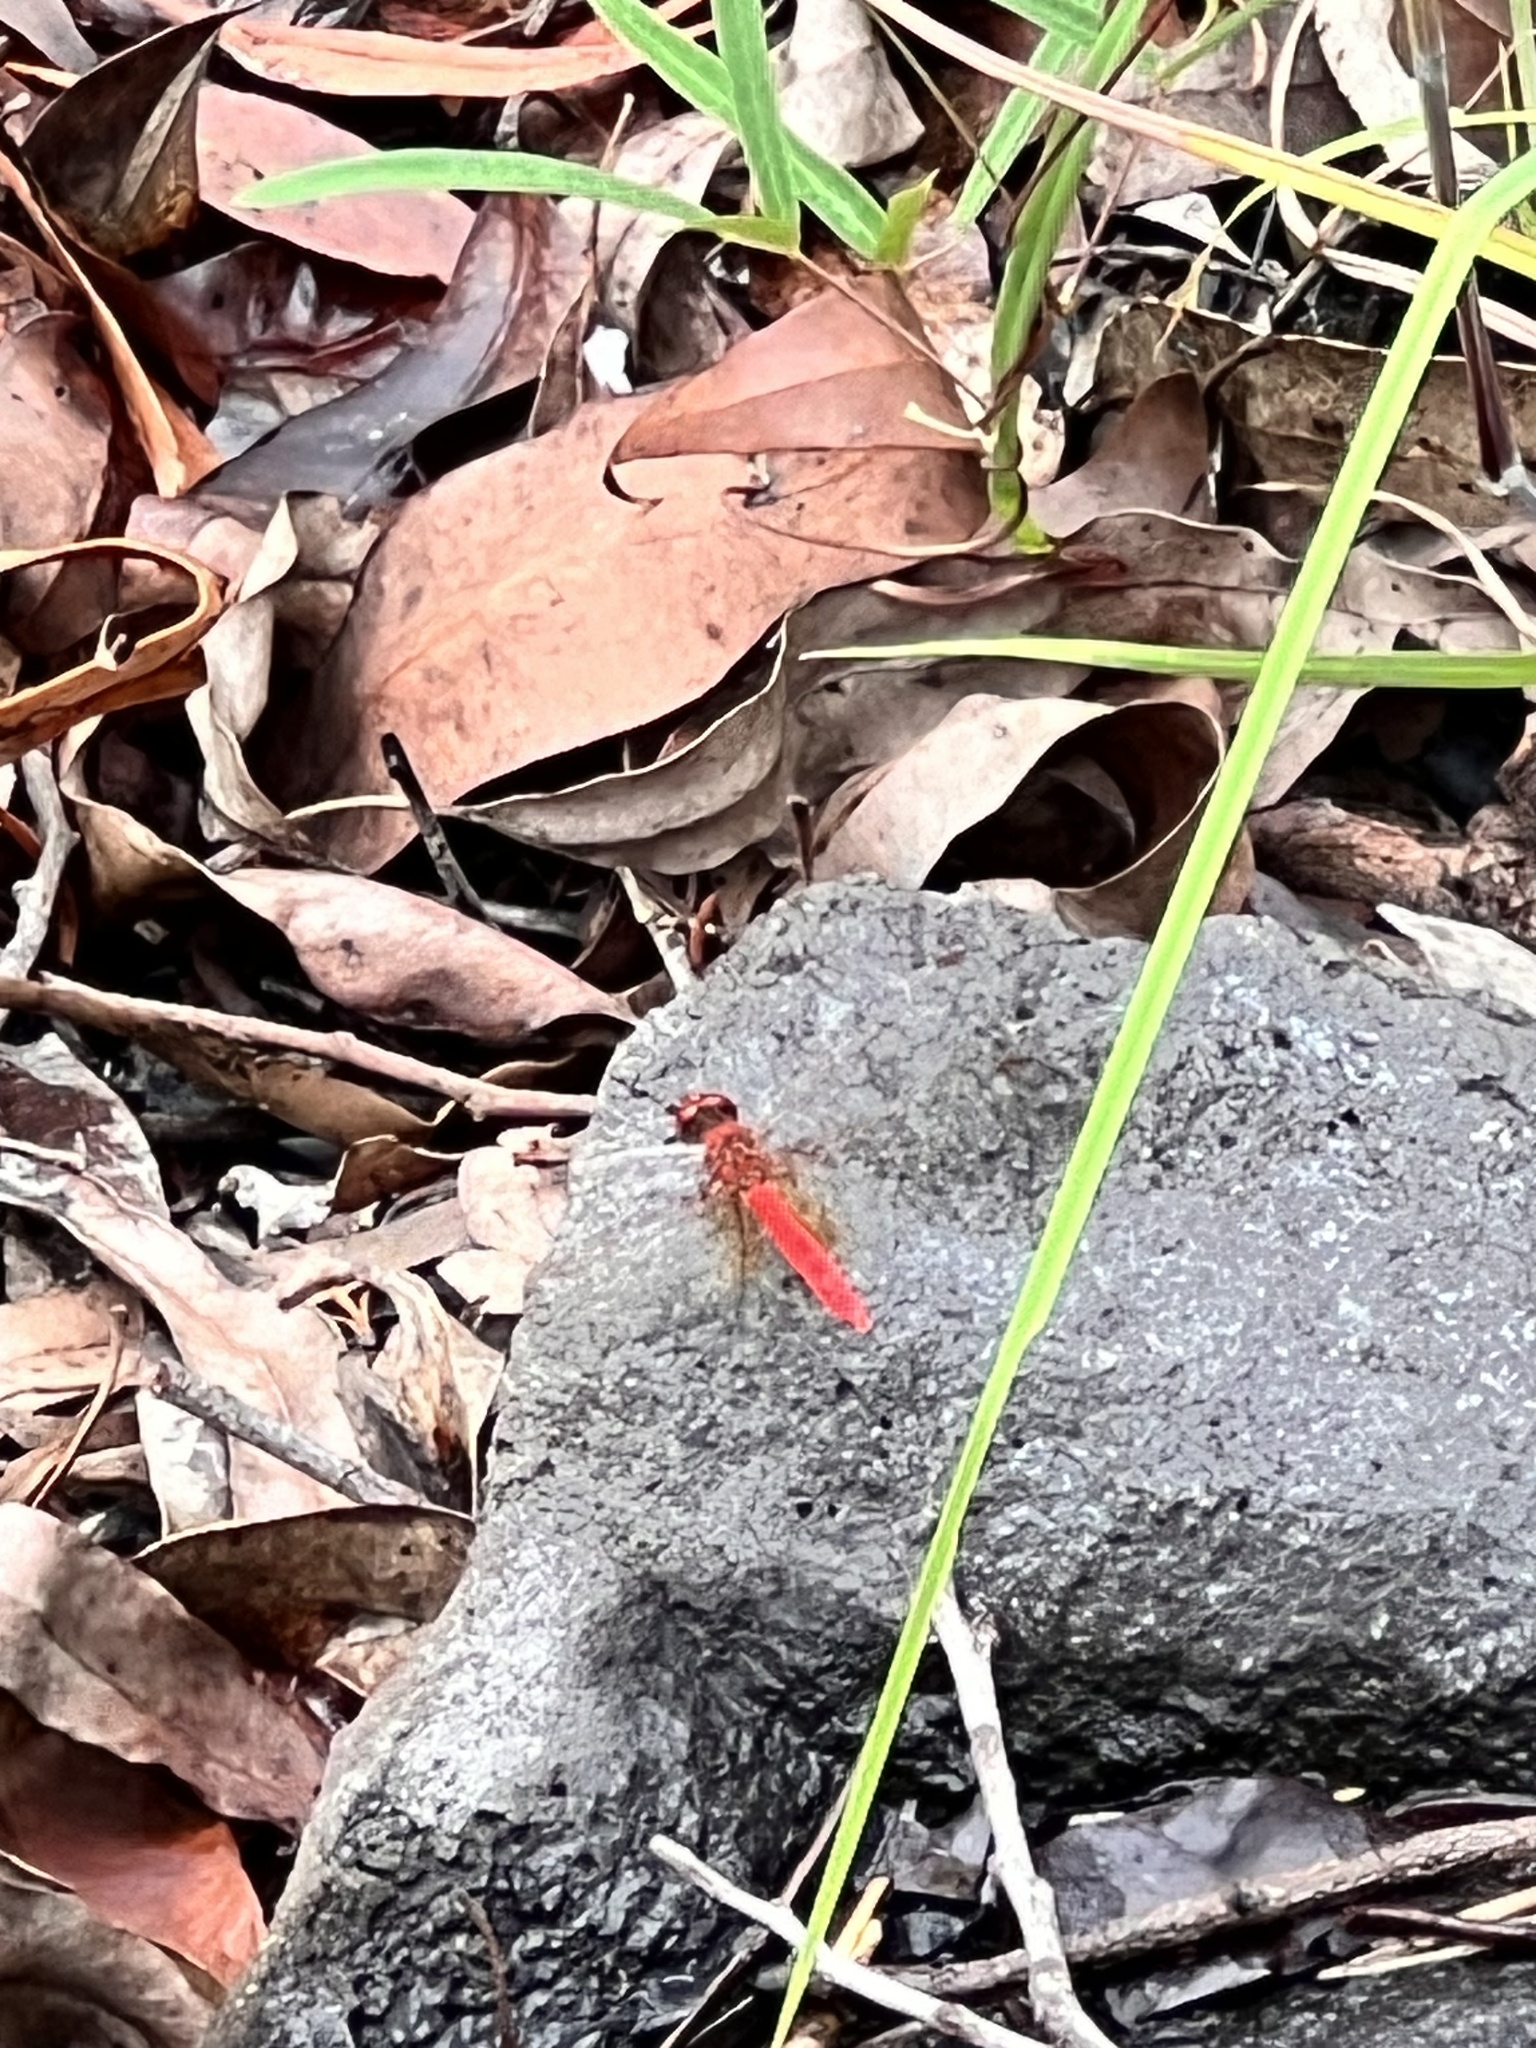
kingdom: Animalia
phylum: Arthropoda
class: Insecta
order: Odonata
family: Libellulidae
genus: Diplacodes
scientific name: Diplacodes haematodes
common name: Scarlet percher
